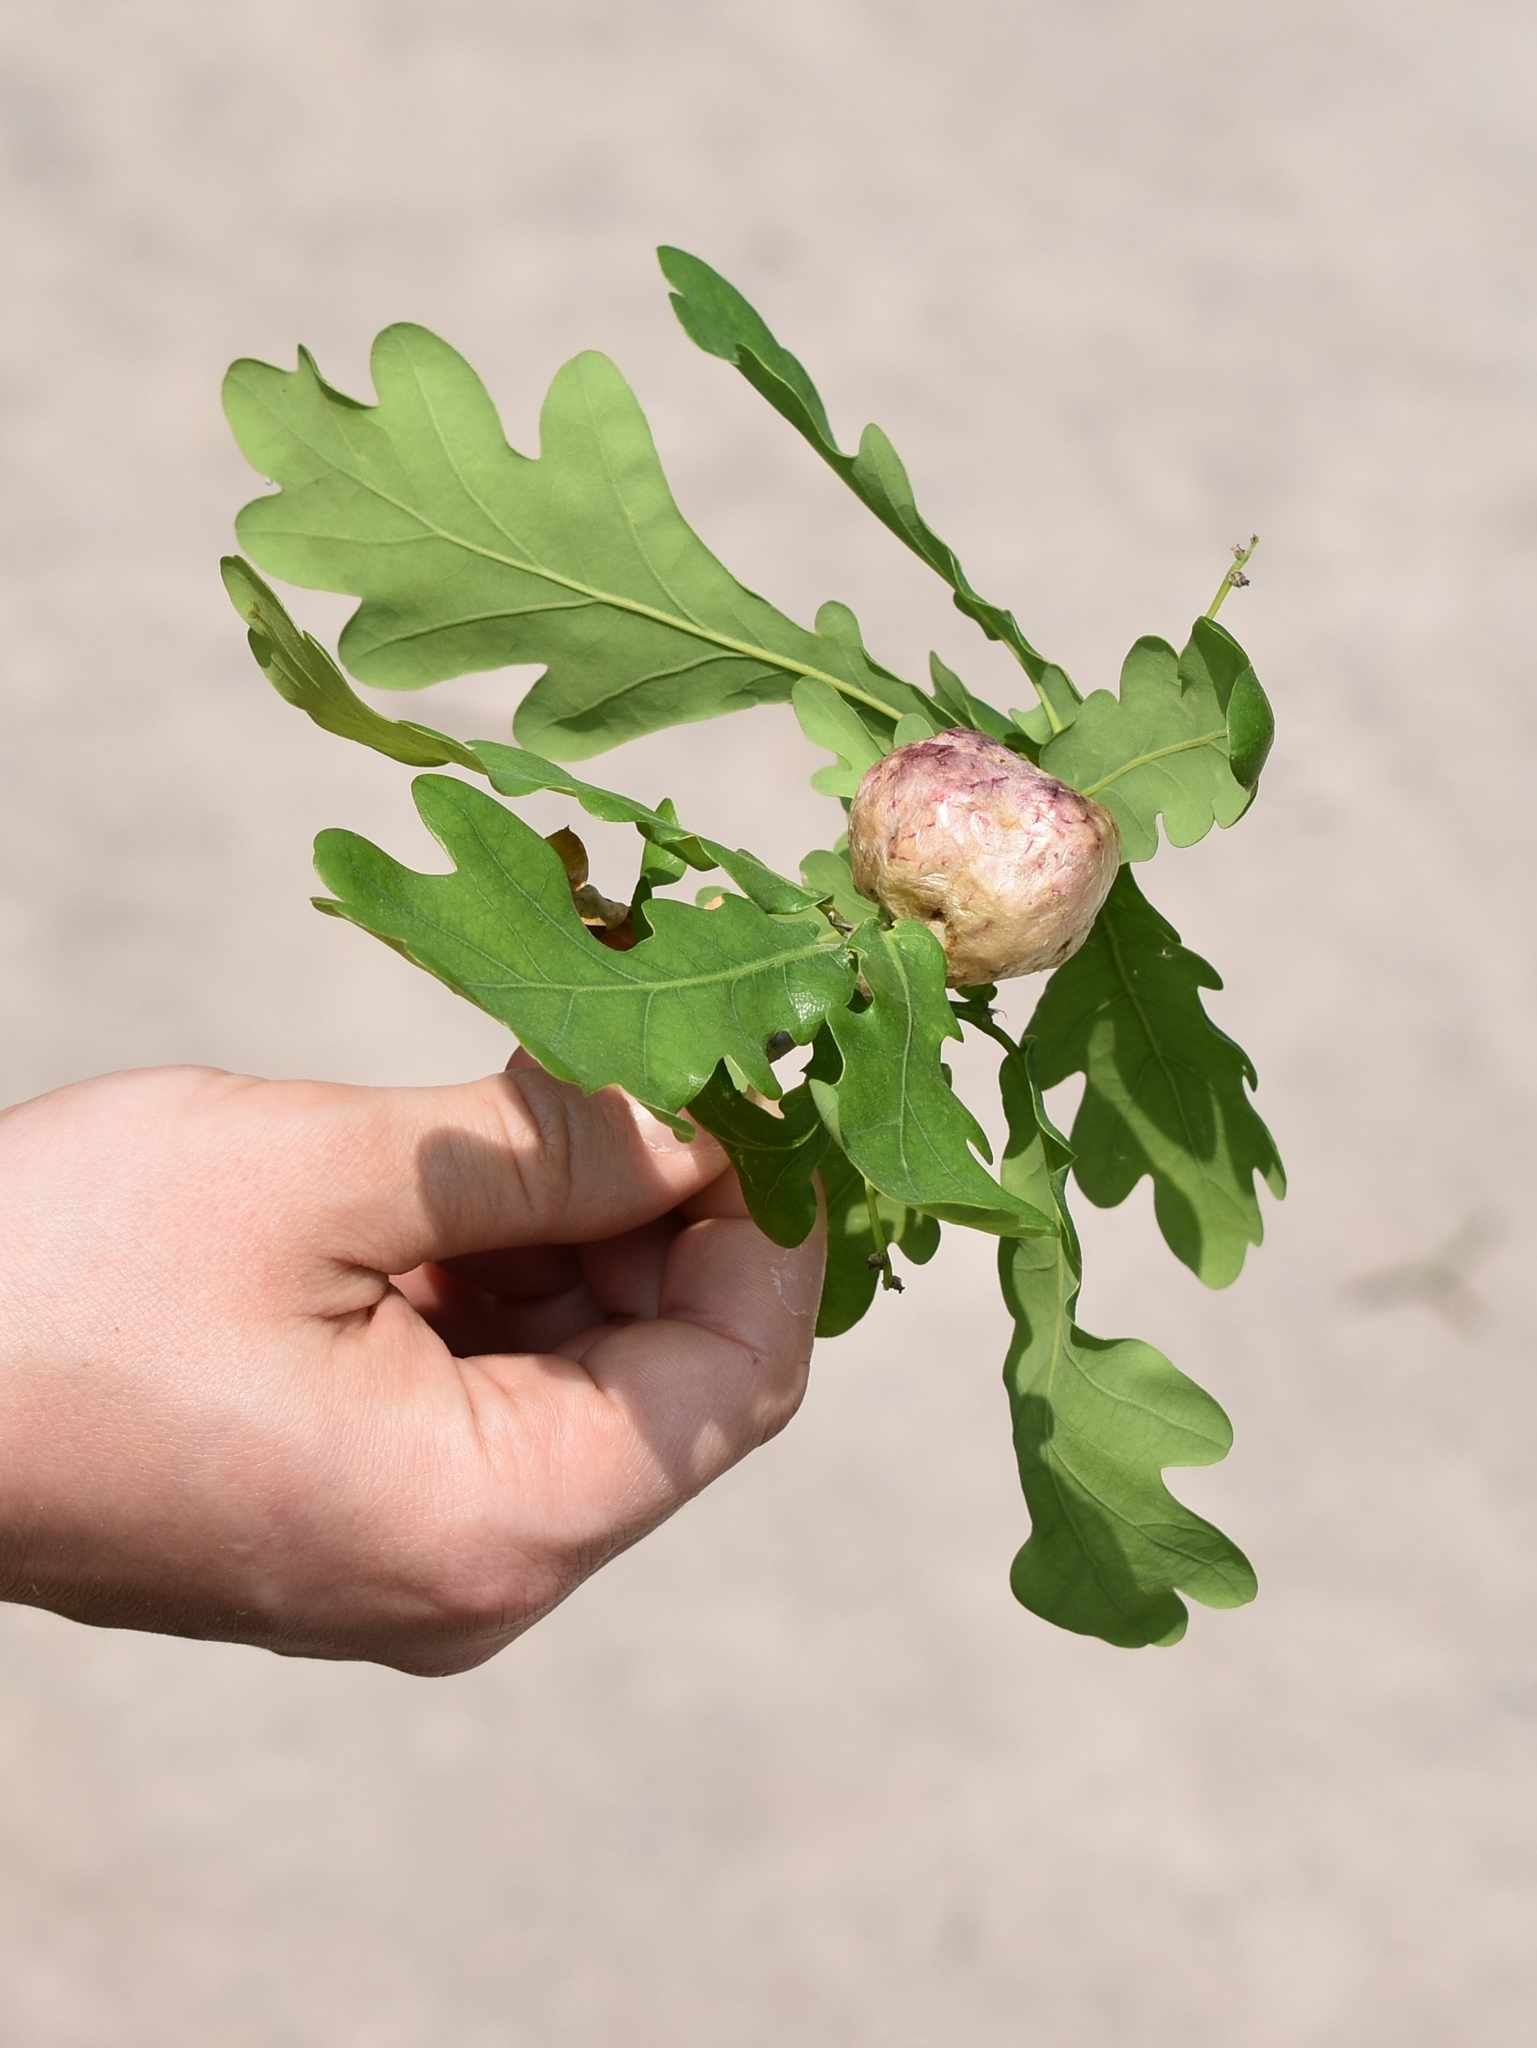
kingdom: Animalia
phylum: Arthropoda
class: Insecta
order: Hymenoptera
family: Cynipidae
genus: Biorhiza
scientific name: Biorhiza pallida
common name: Oak apple
